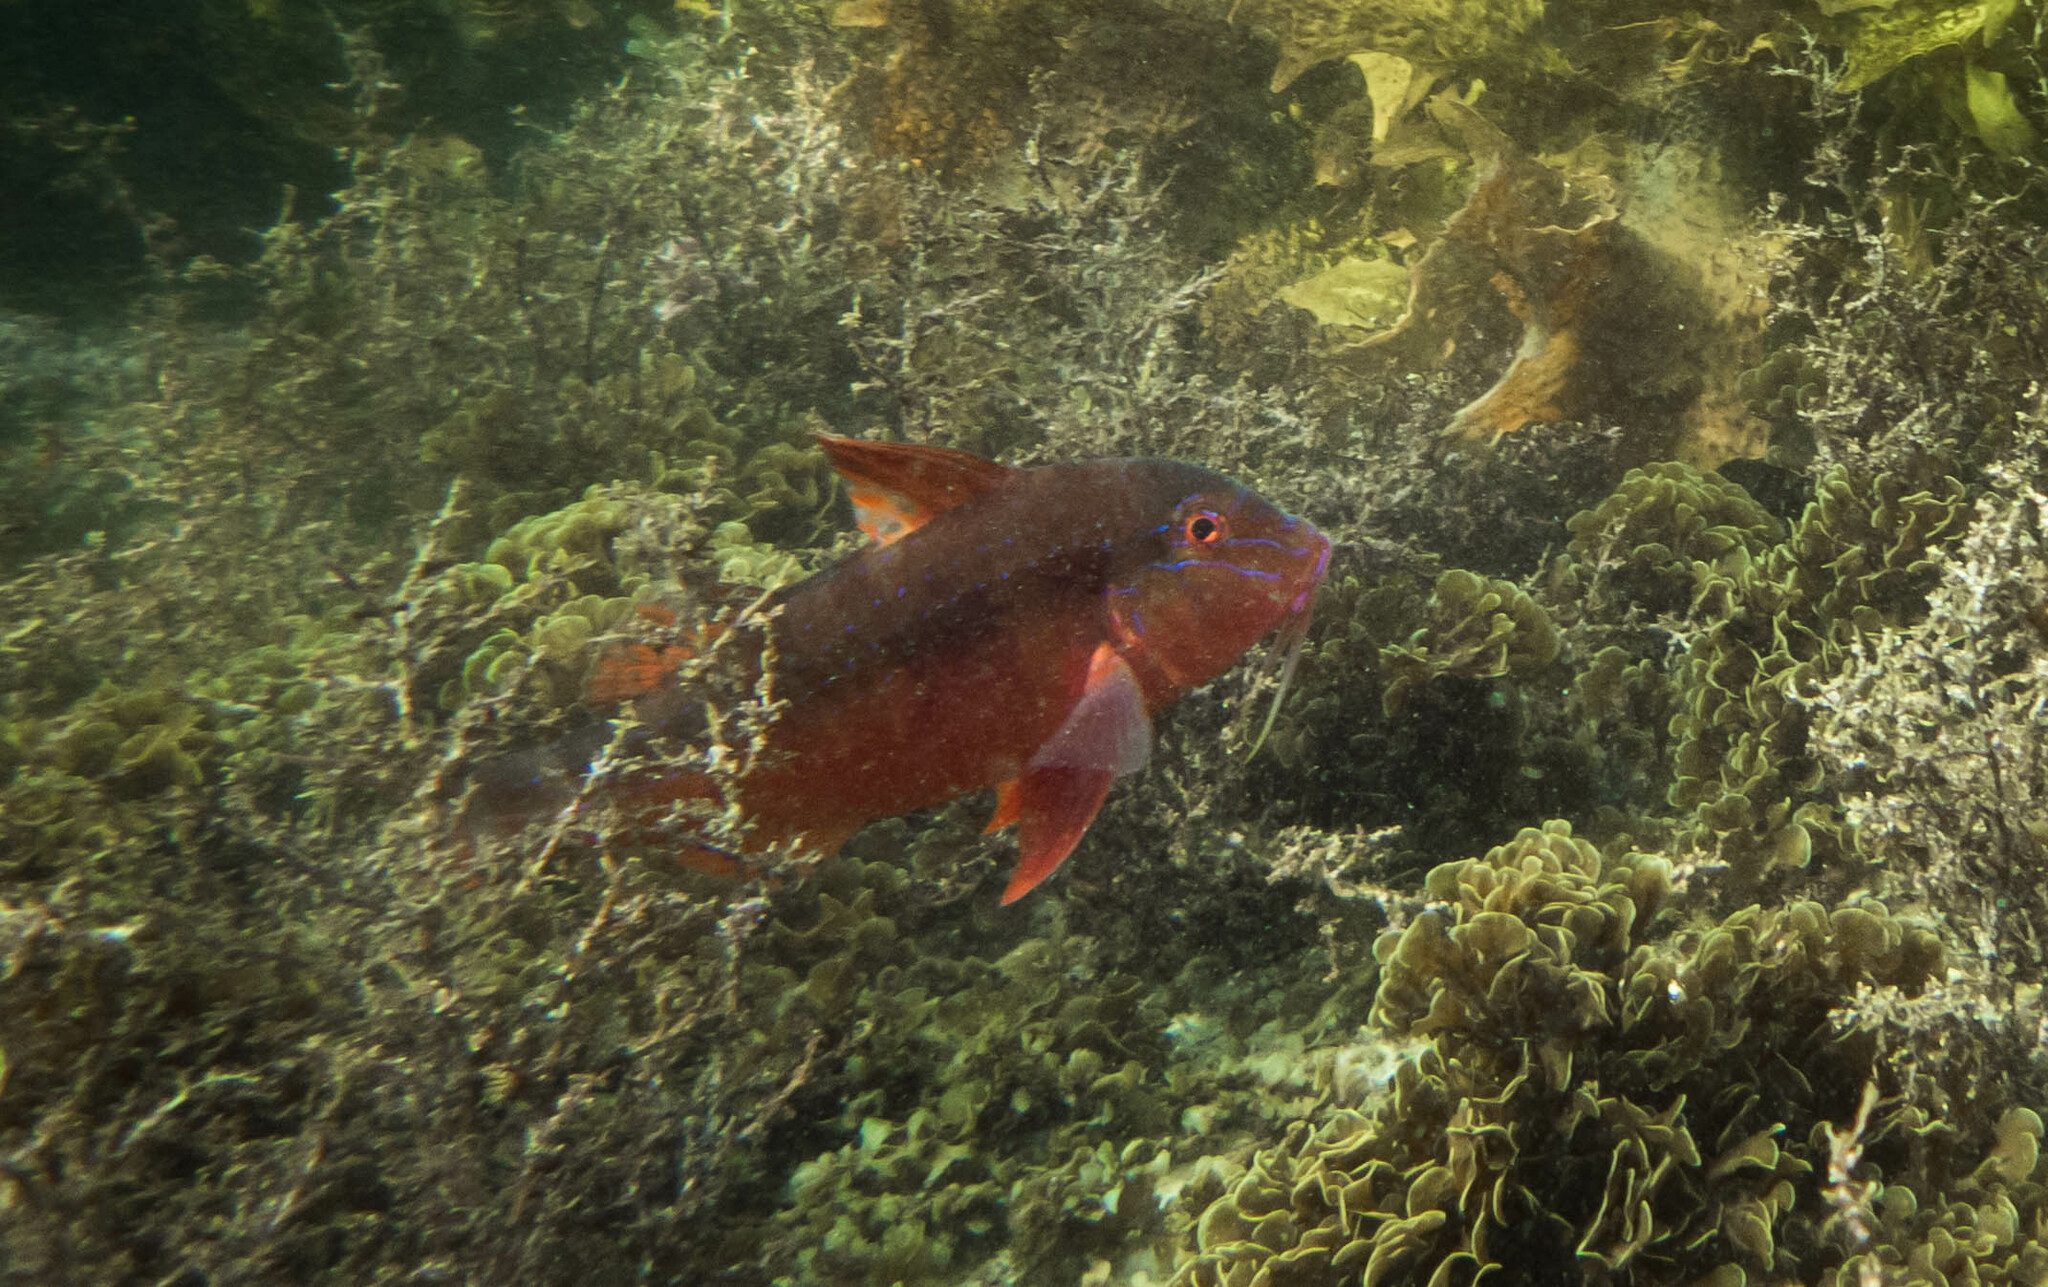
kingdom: Animalia
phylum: Chordata
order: Perciformes
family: Mullidae
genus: Upeneichthys
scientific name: Upeneichthys lineatus
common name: Red mullet
